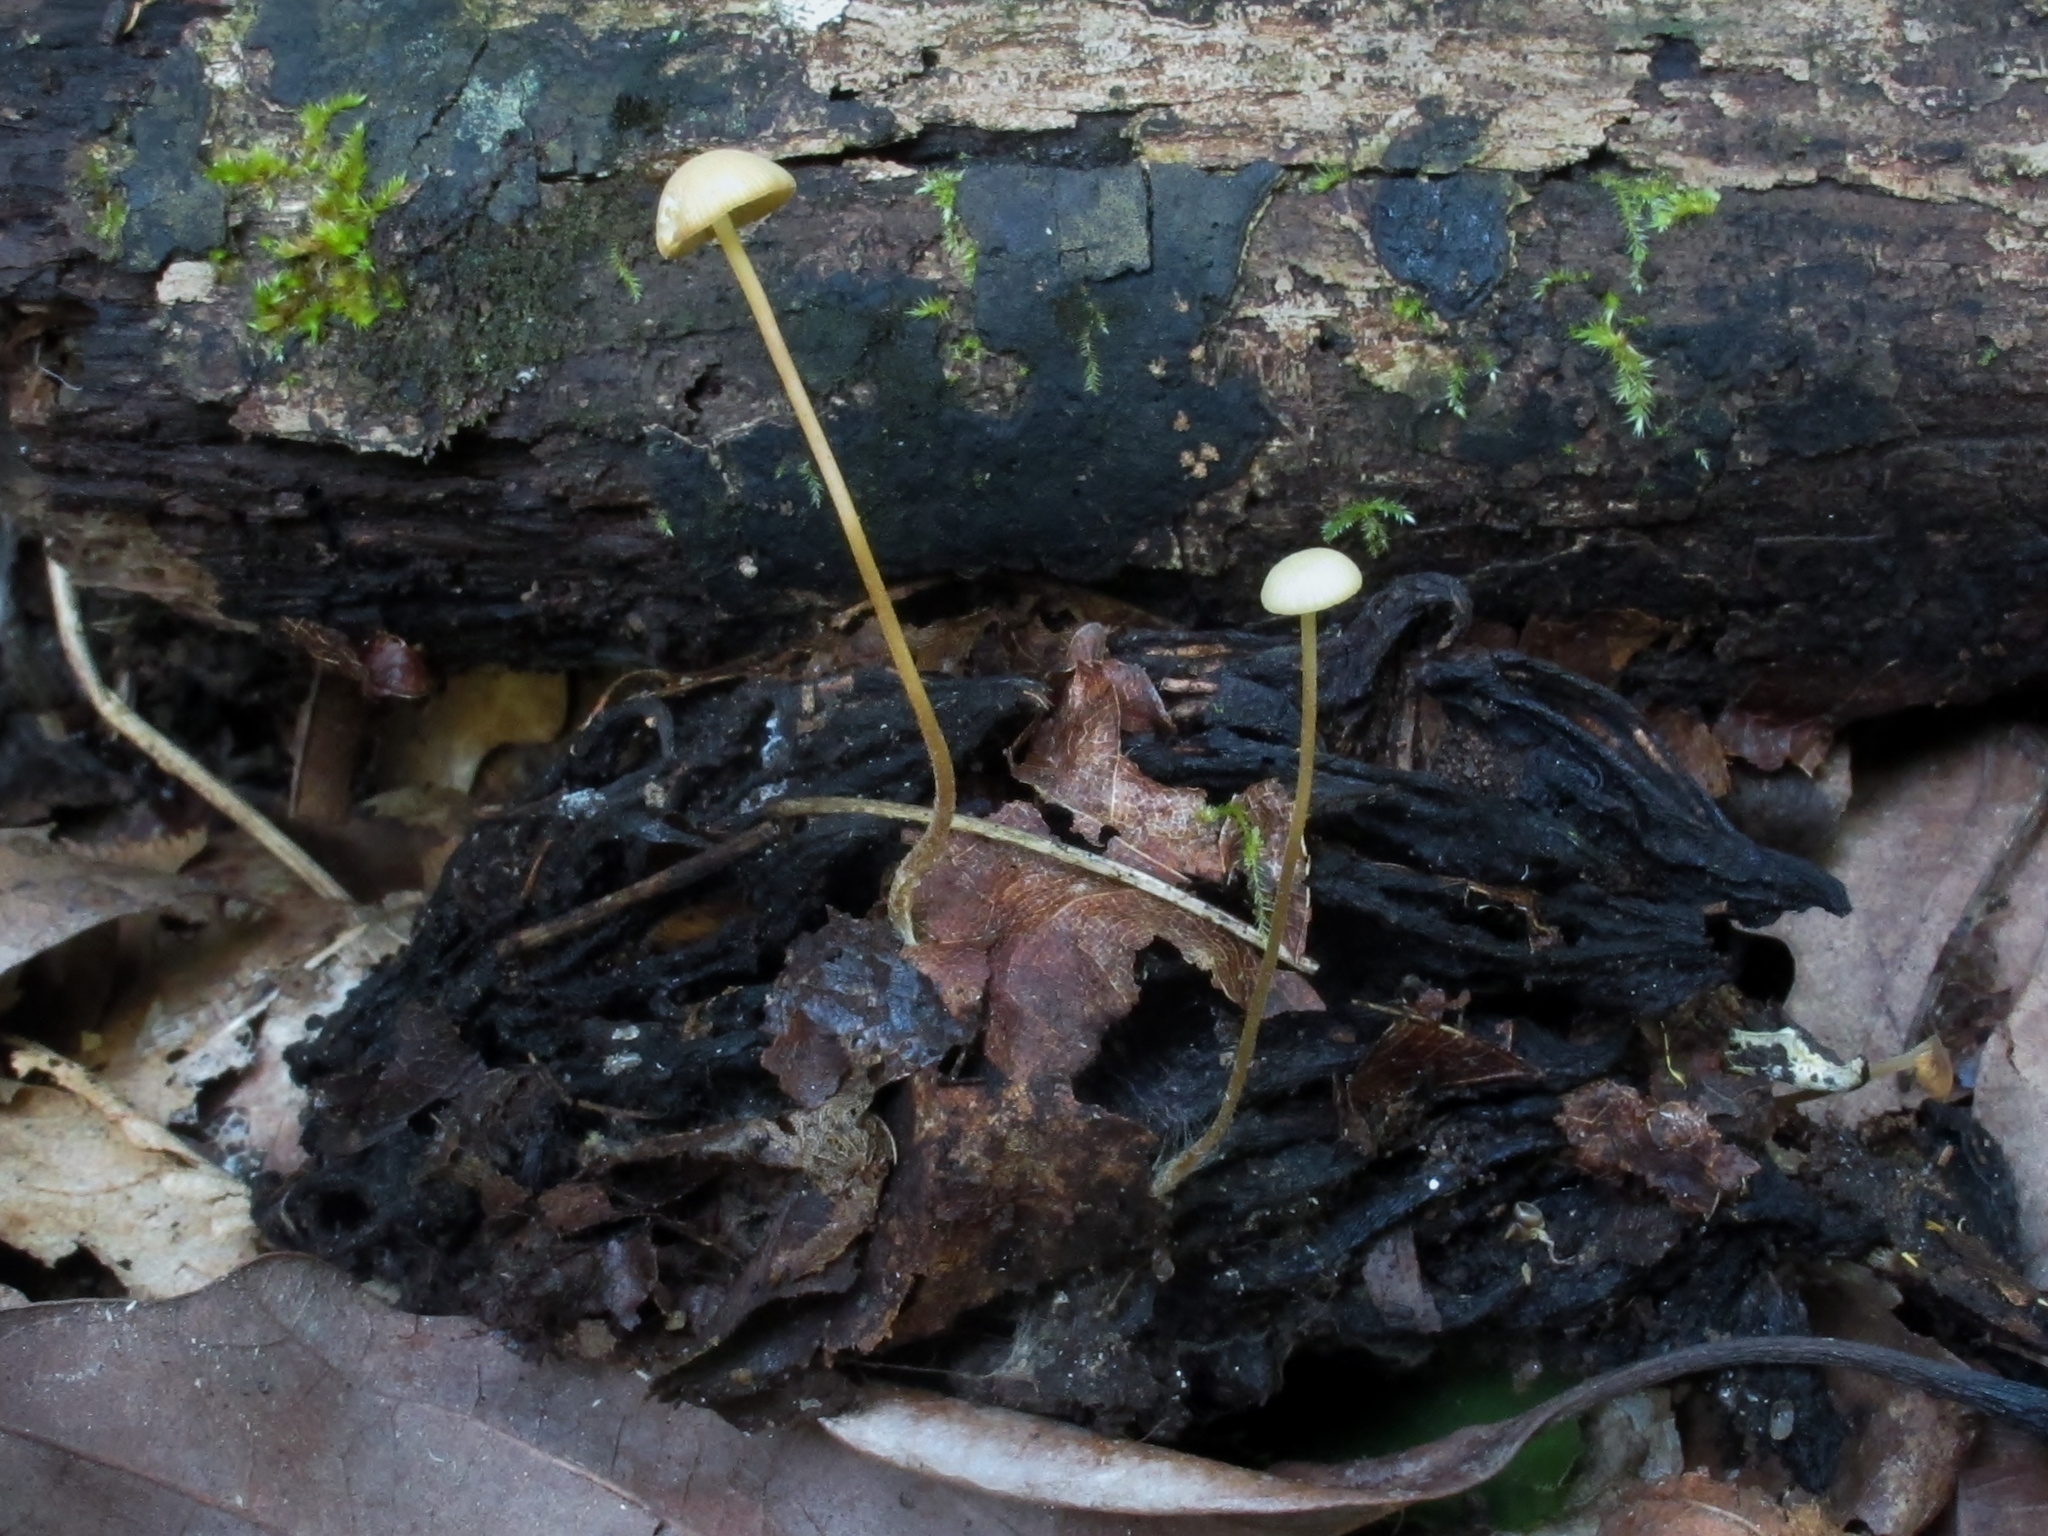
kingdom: Fungi
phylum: Basidiomycota
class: Agaricomycetes
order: Agaricales
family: Physalacriaceae
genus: Strobilurus
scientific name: Strobilurus conigenoides
